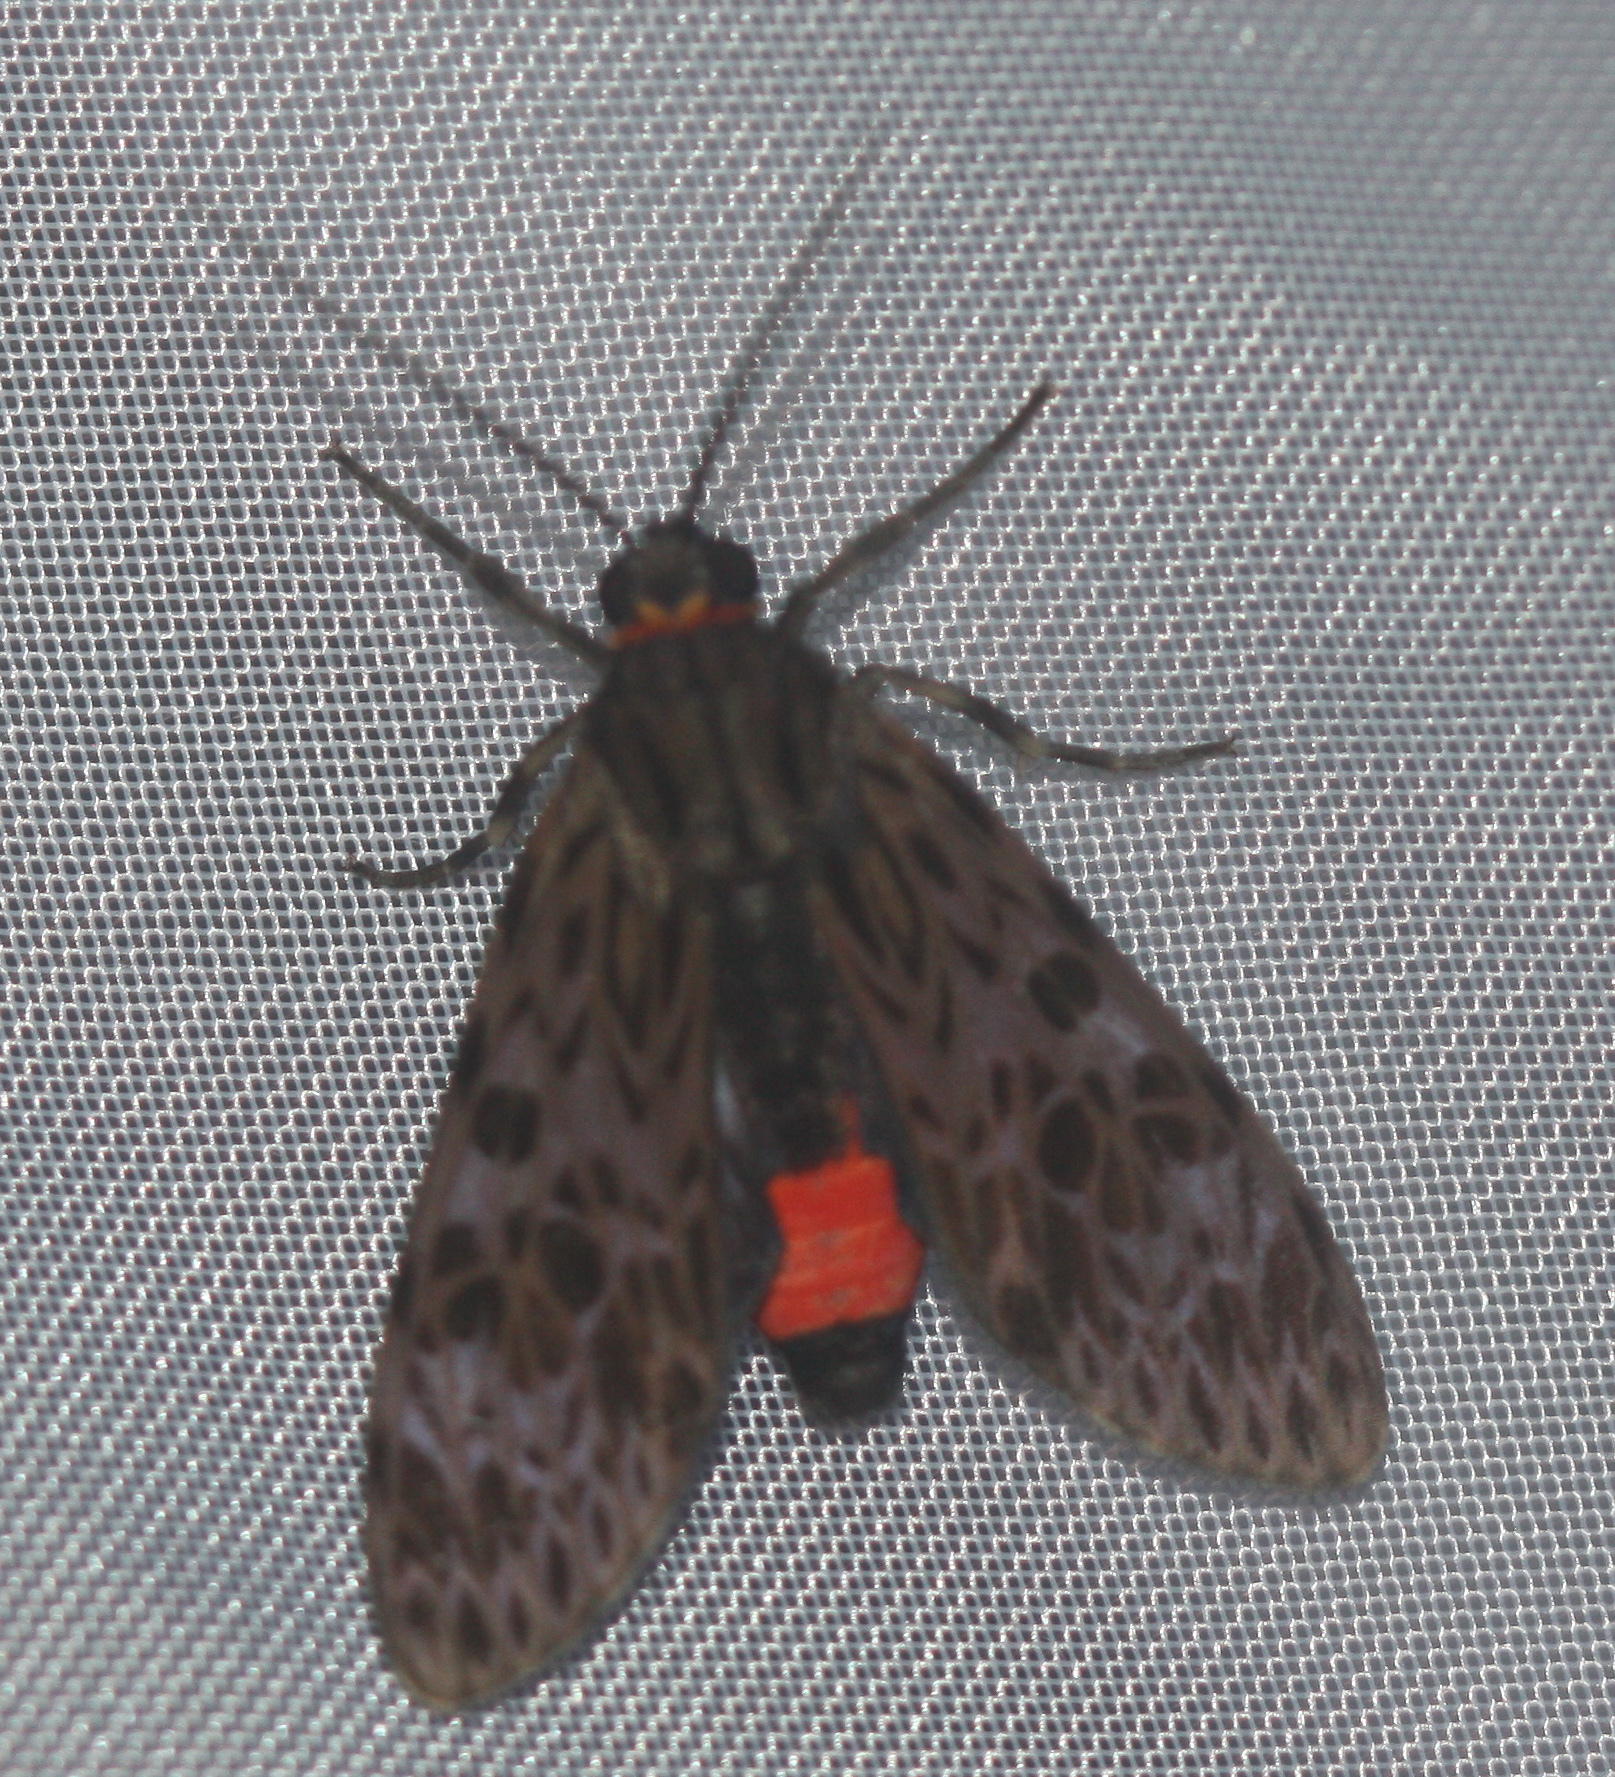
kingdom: Animalia
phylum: Arthropoda
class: Insecta
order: Lepidoptera
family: Erebidae
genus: Eucereon
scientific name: Eucereon pseudarchias
